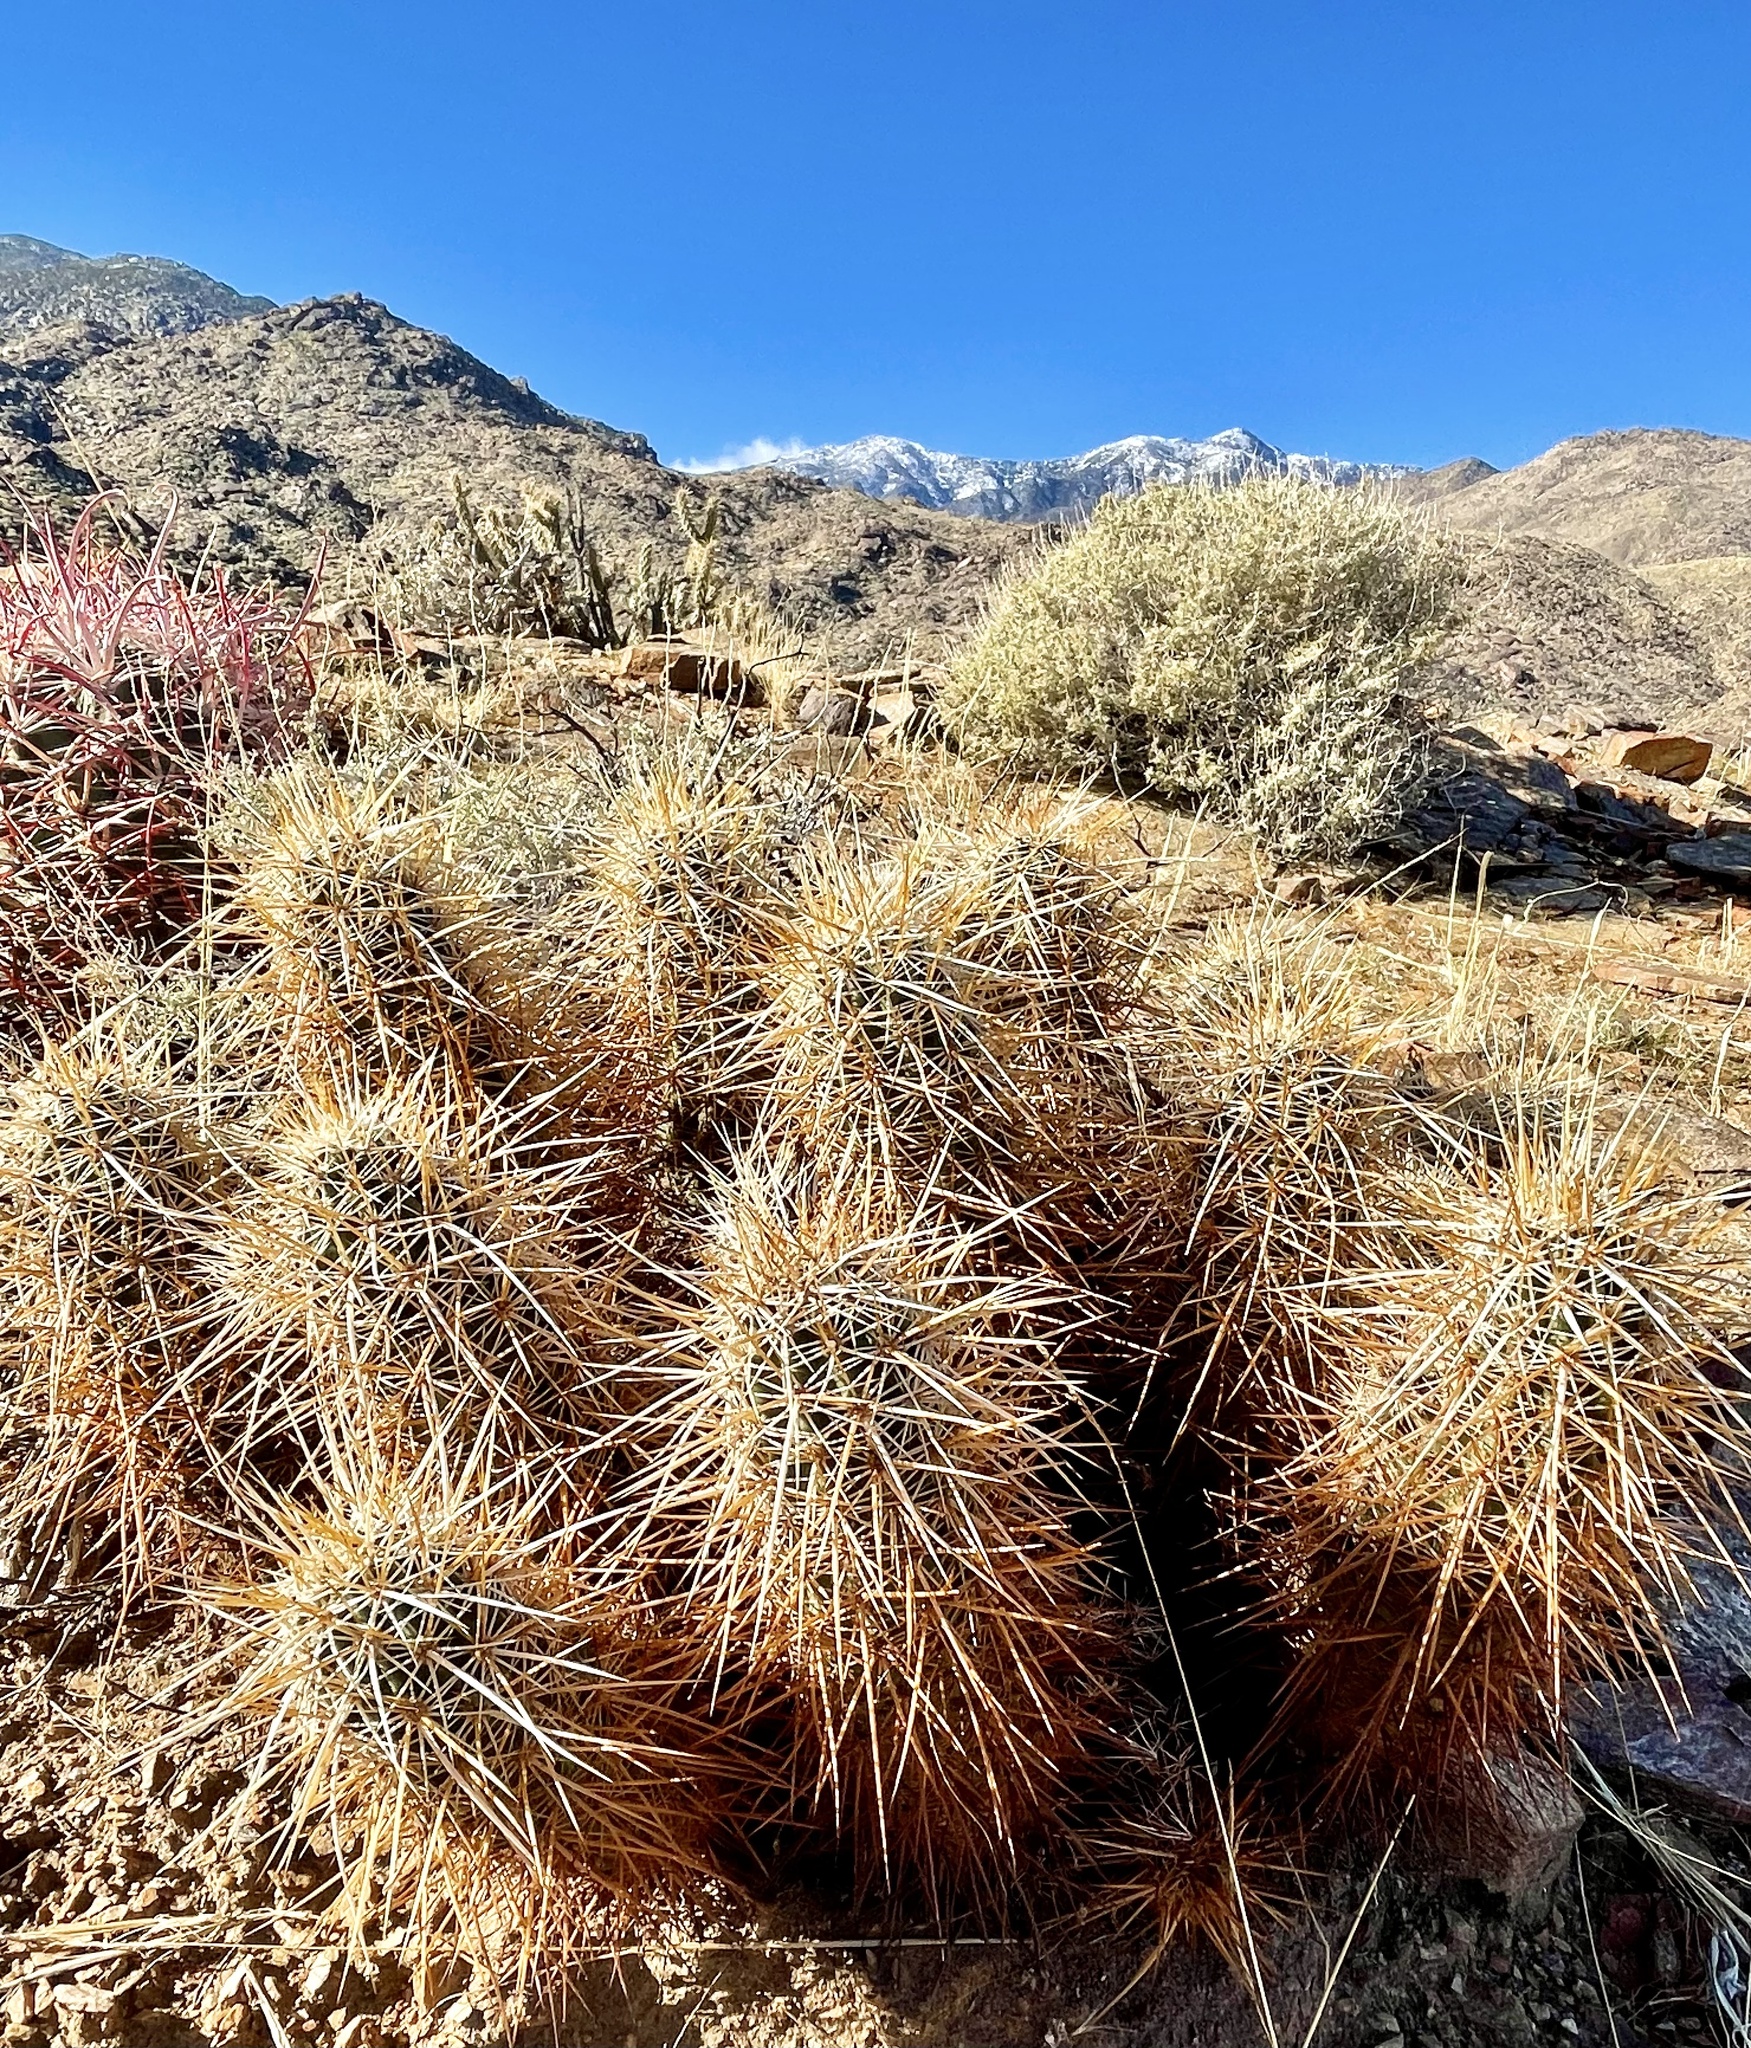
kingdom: Plantae
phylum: Tracheophyta
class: Magnoliopsida
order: Caryophyllales
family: Cactaceae
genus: Echinocereus
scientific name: Echinocereus engelmannii
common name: Engelmann's hedgehog cactus
